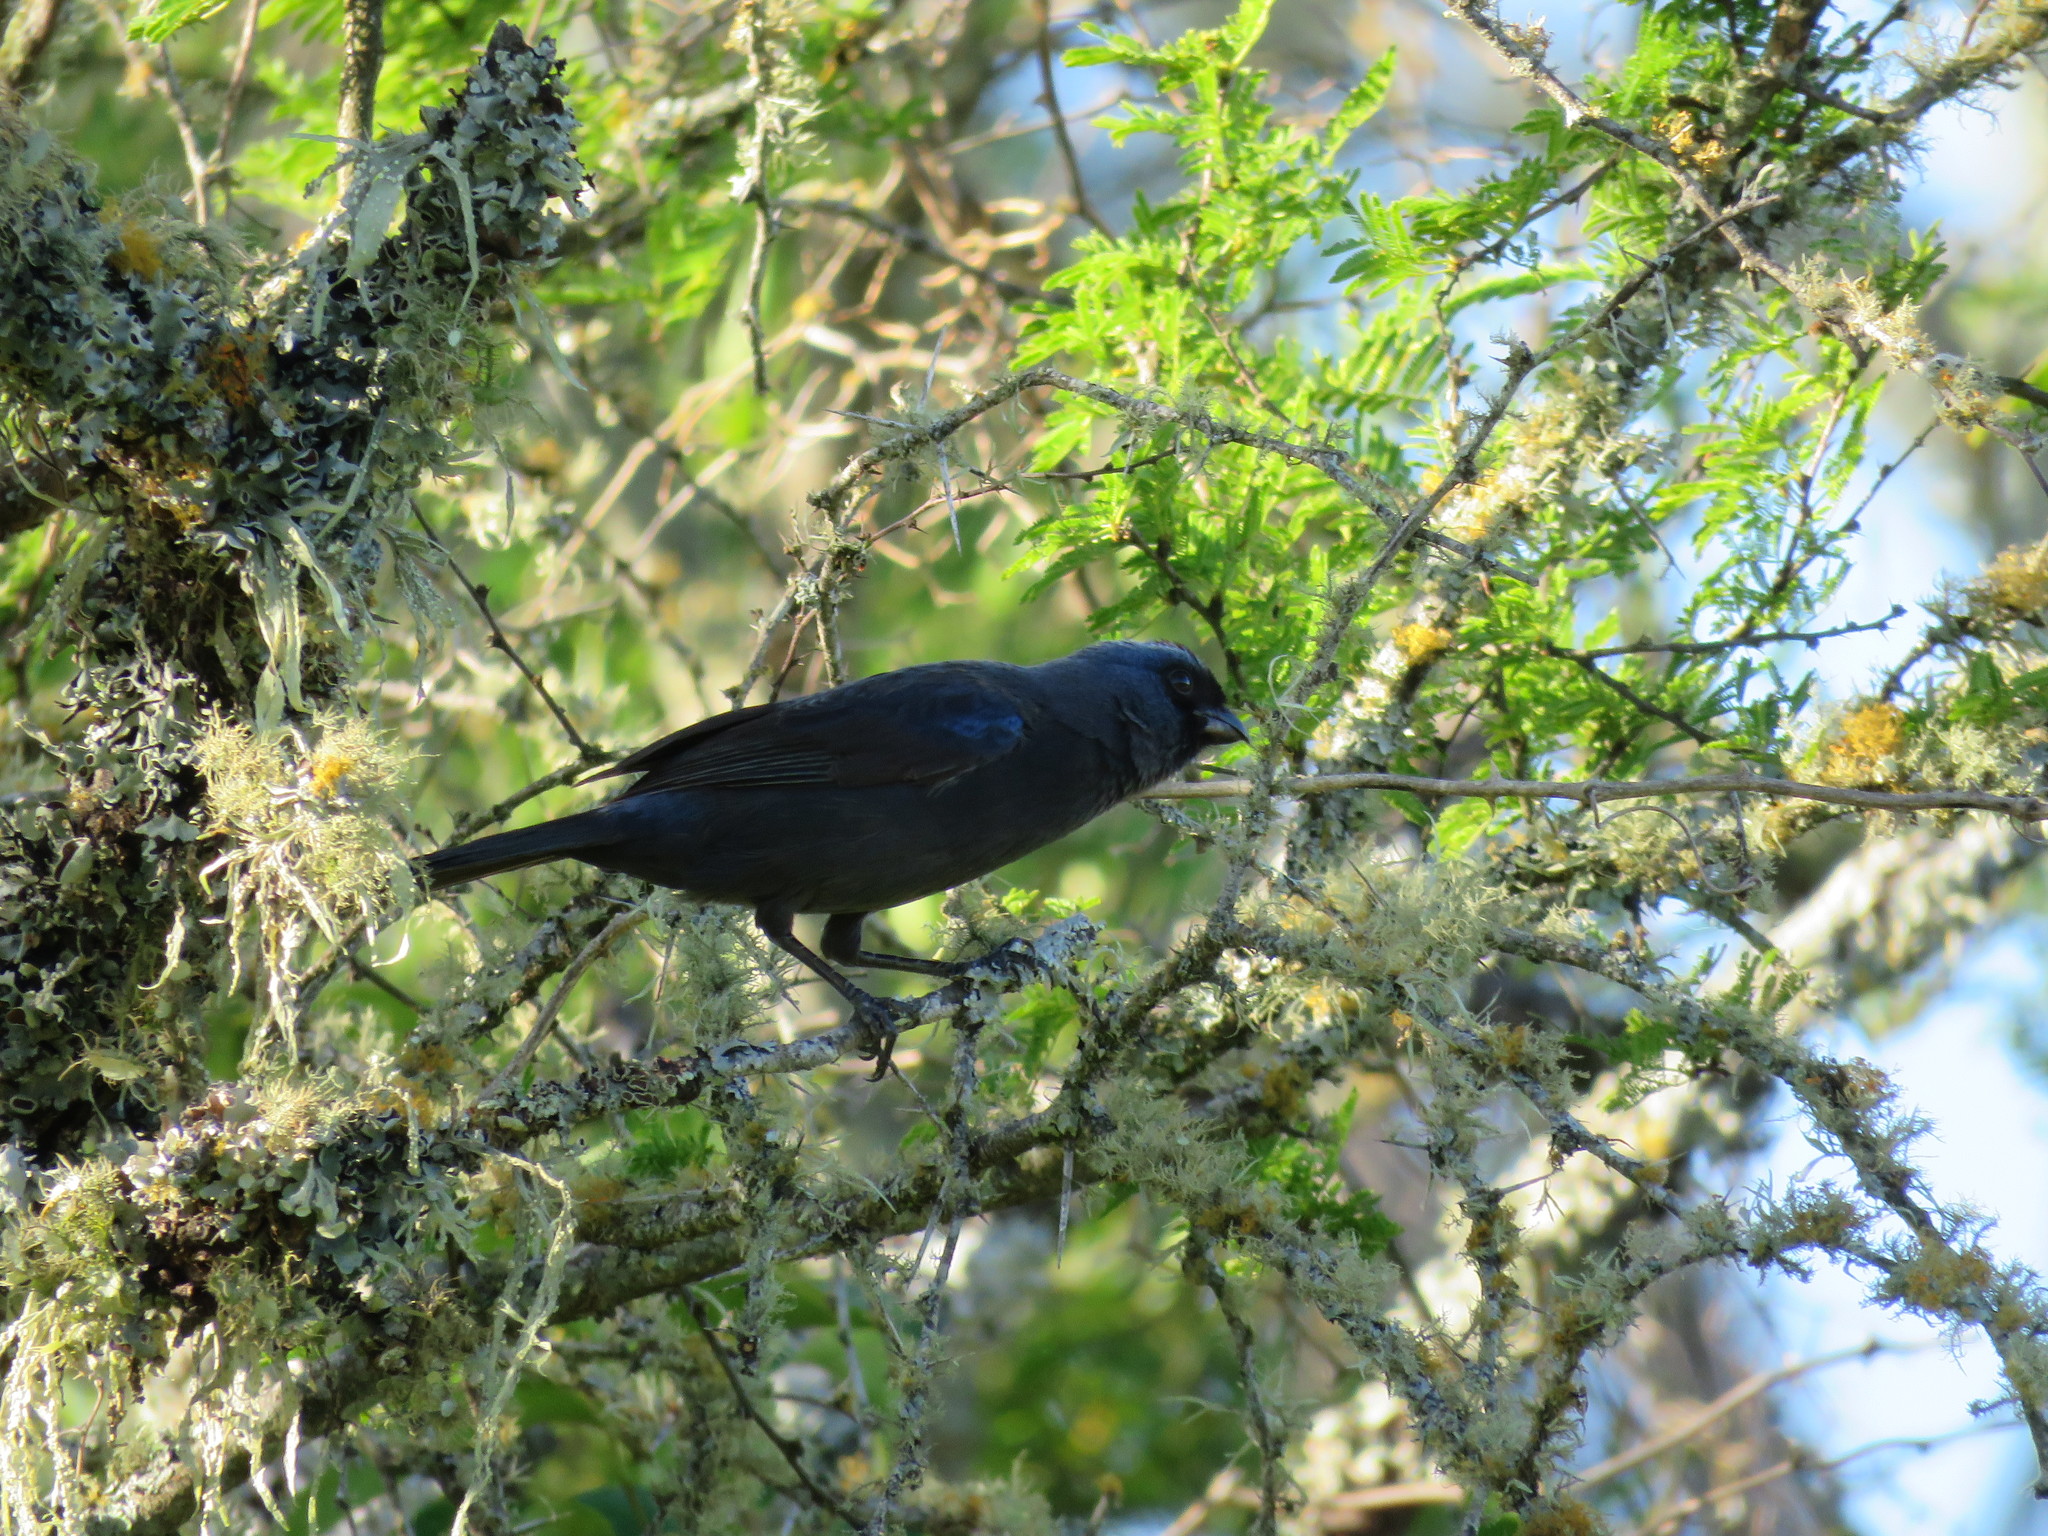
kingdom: Animalia
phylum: Chordata
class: Aves
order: Passeriformes
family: Thraupidae
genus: Stephanophorus
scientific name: Stephanophorus diadematus
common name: Diademed tanager
